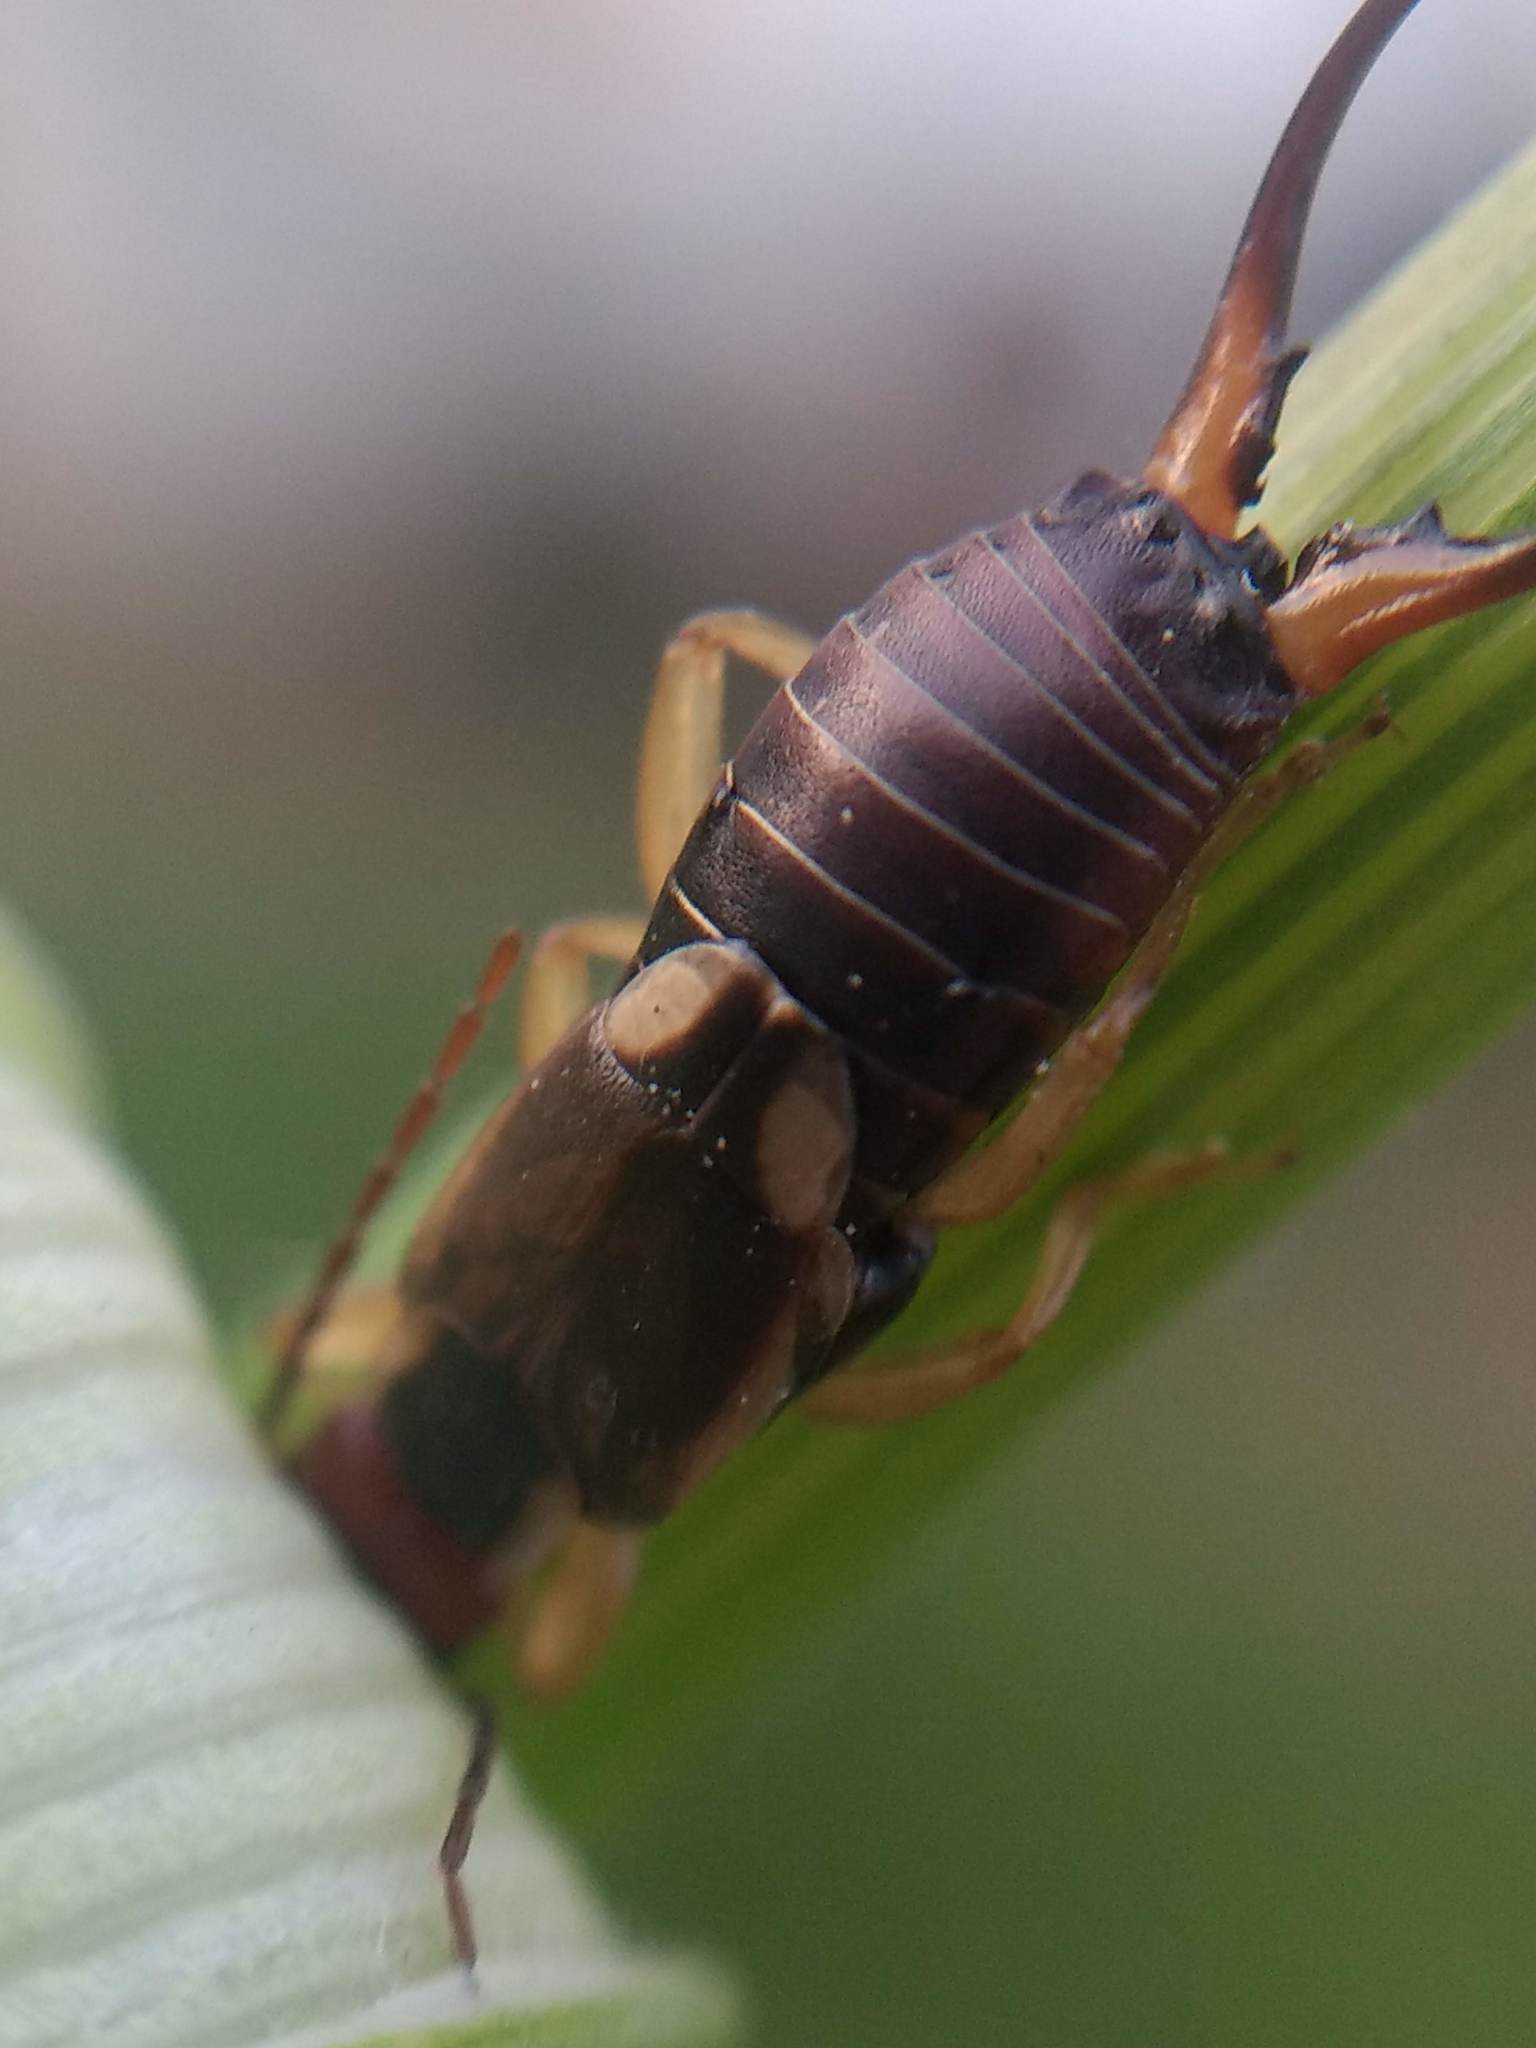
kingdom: Animalia
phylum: Arthropoda
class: Insecta
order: Dermaptera
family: Forficulidae
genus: Forficula
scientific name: Forficula
